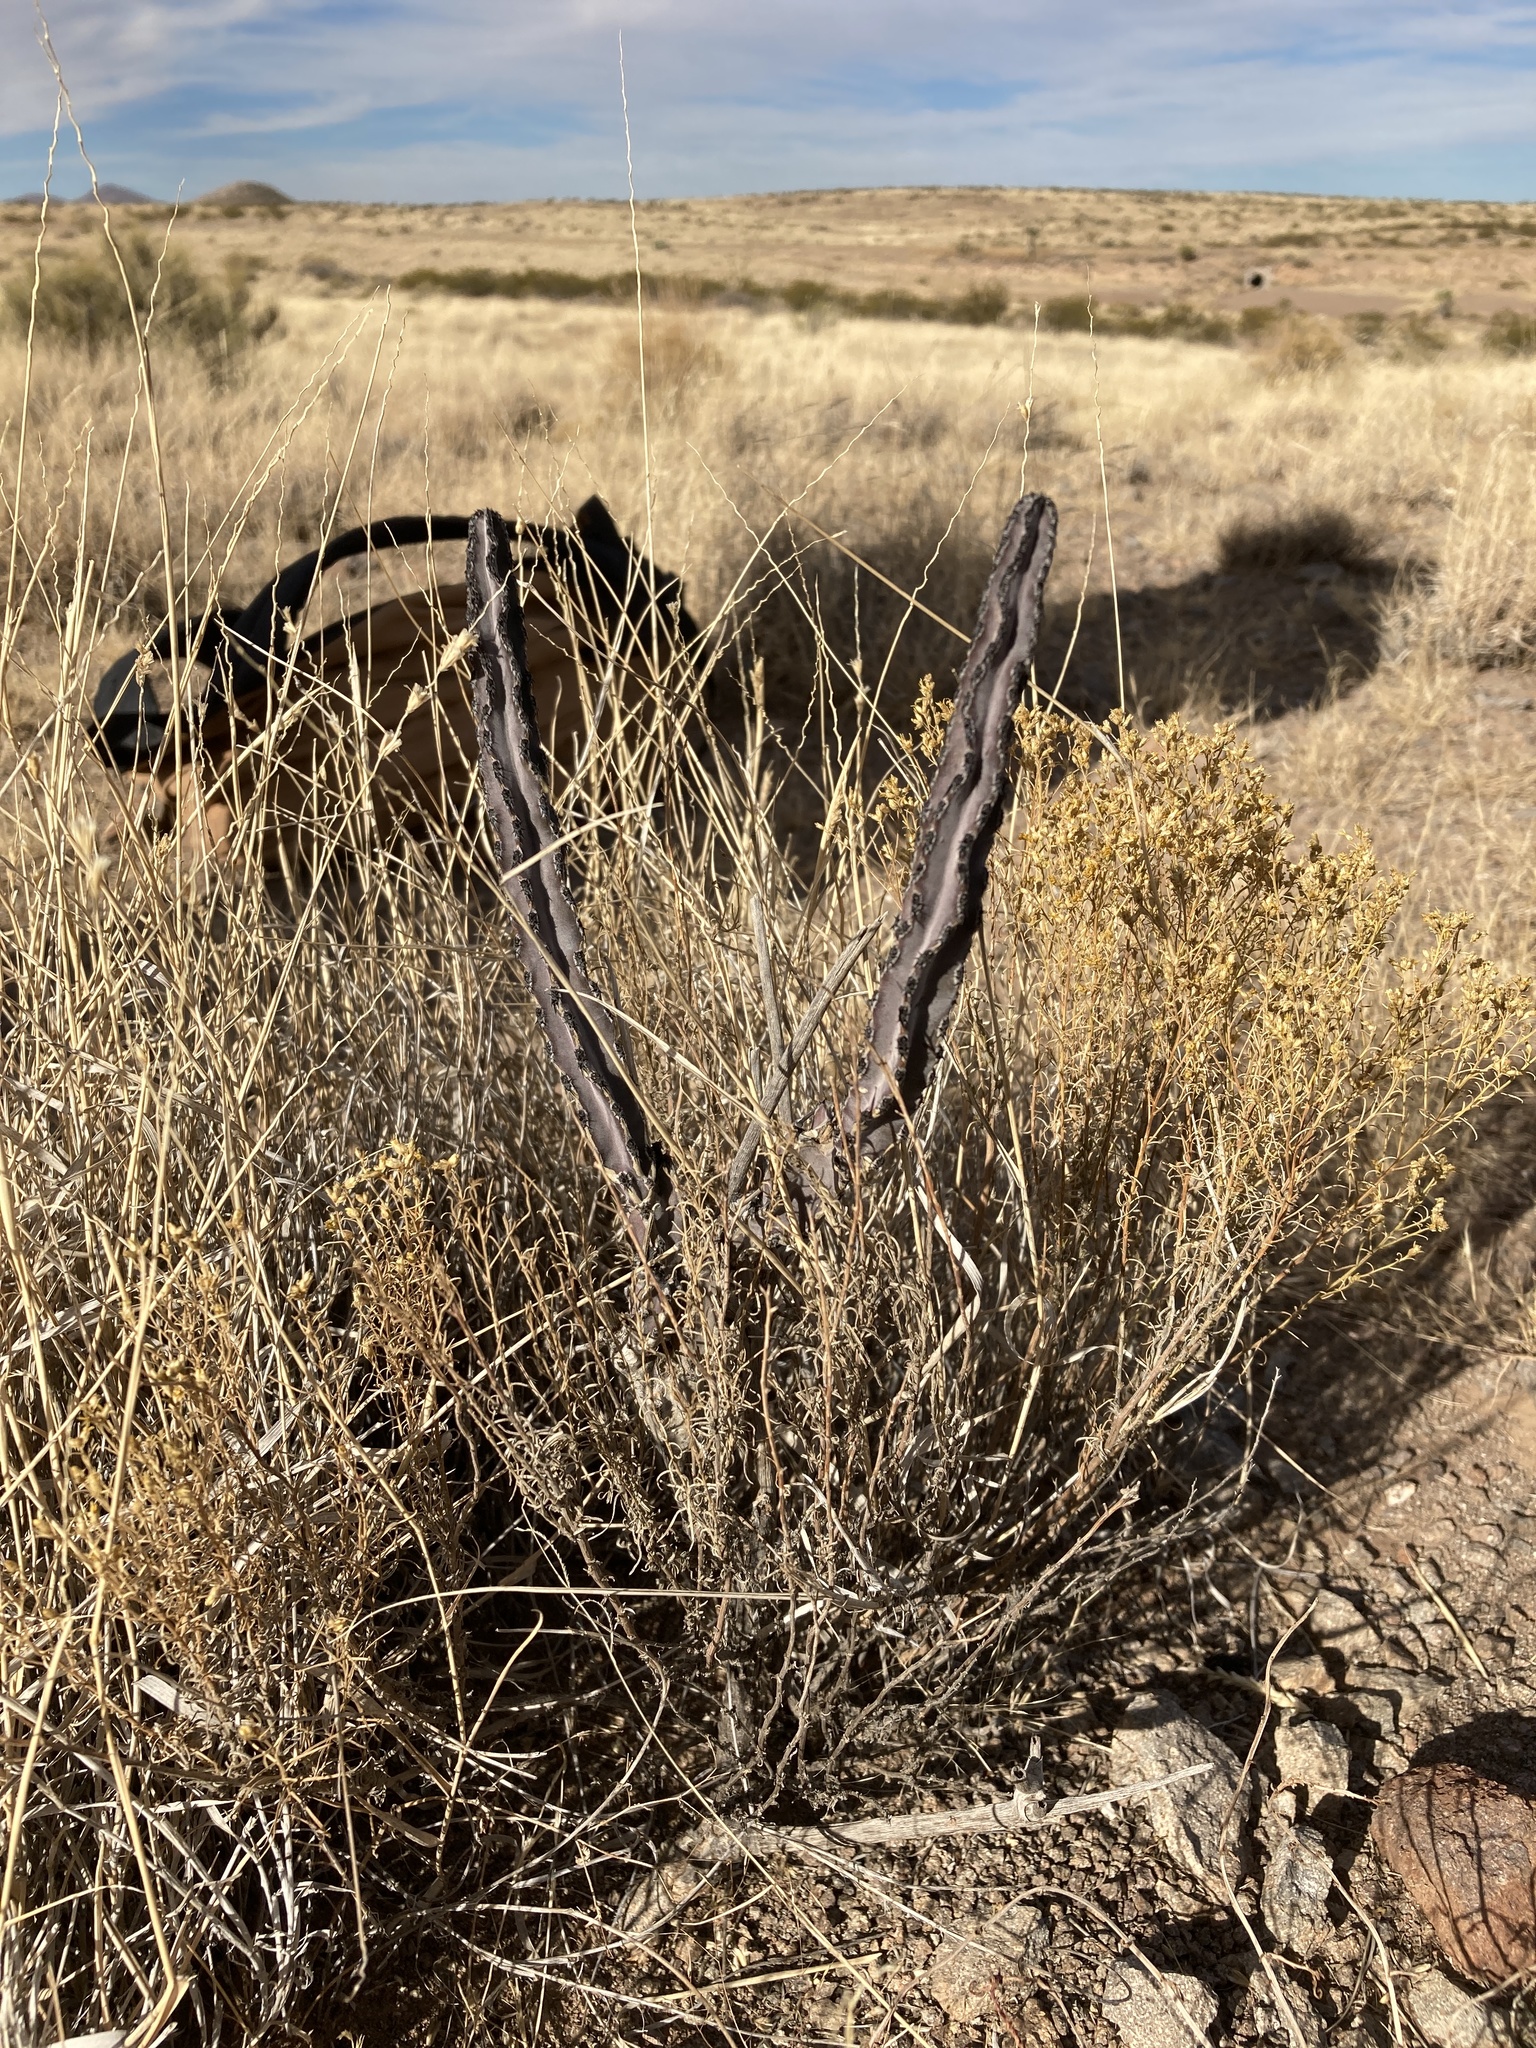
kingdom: Plantae
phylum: Tracheophyta
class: Magnoliopsida
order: Caryophyllales
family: Cactaceae
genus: Peniocereus
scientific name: Peniocereus greggii
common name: Desert night-blooming cereus
